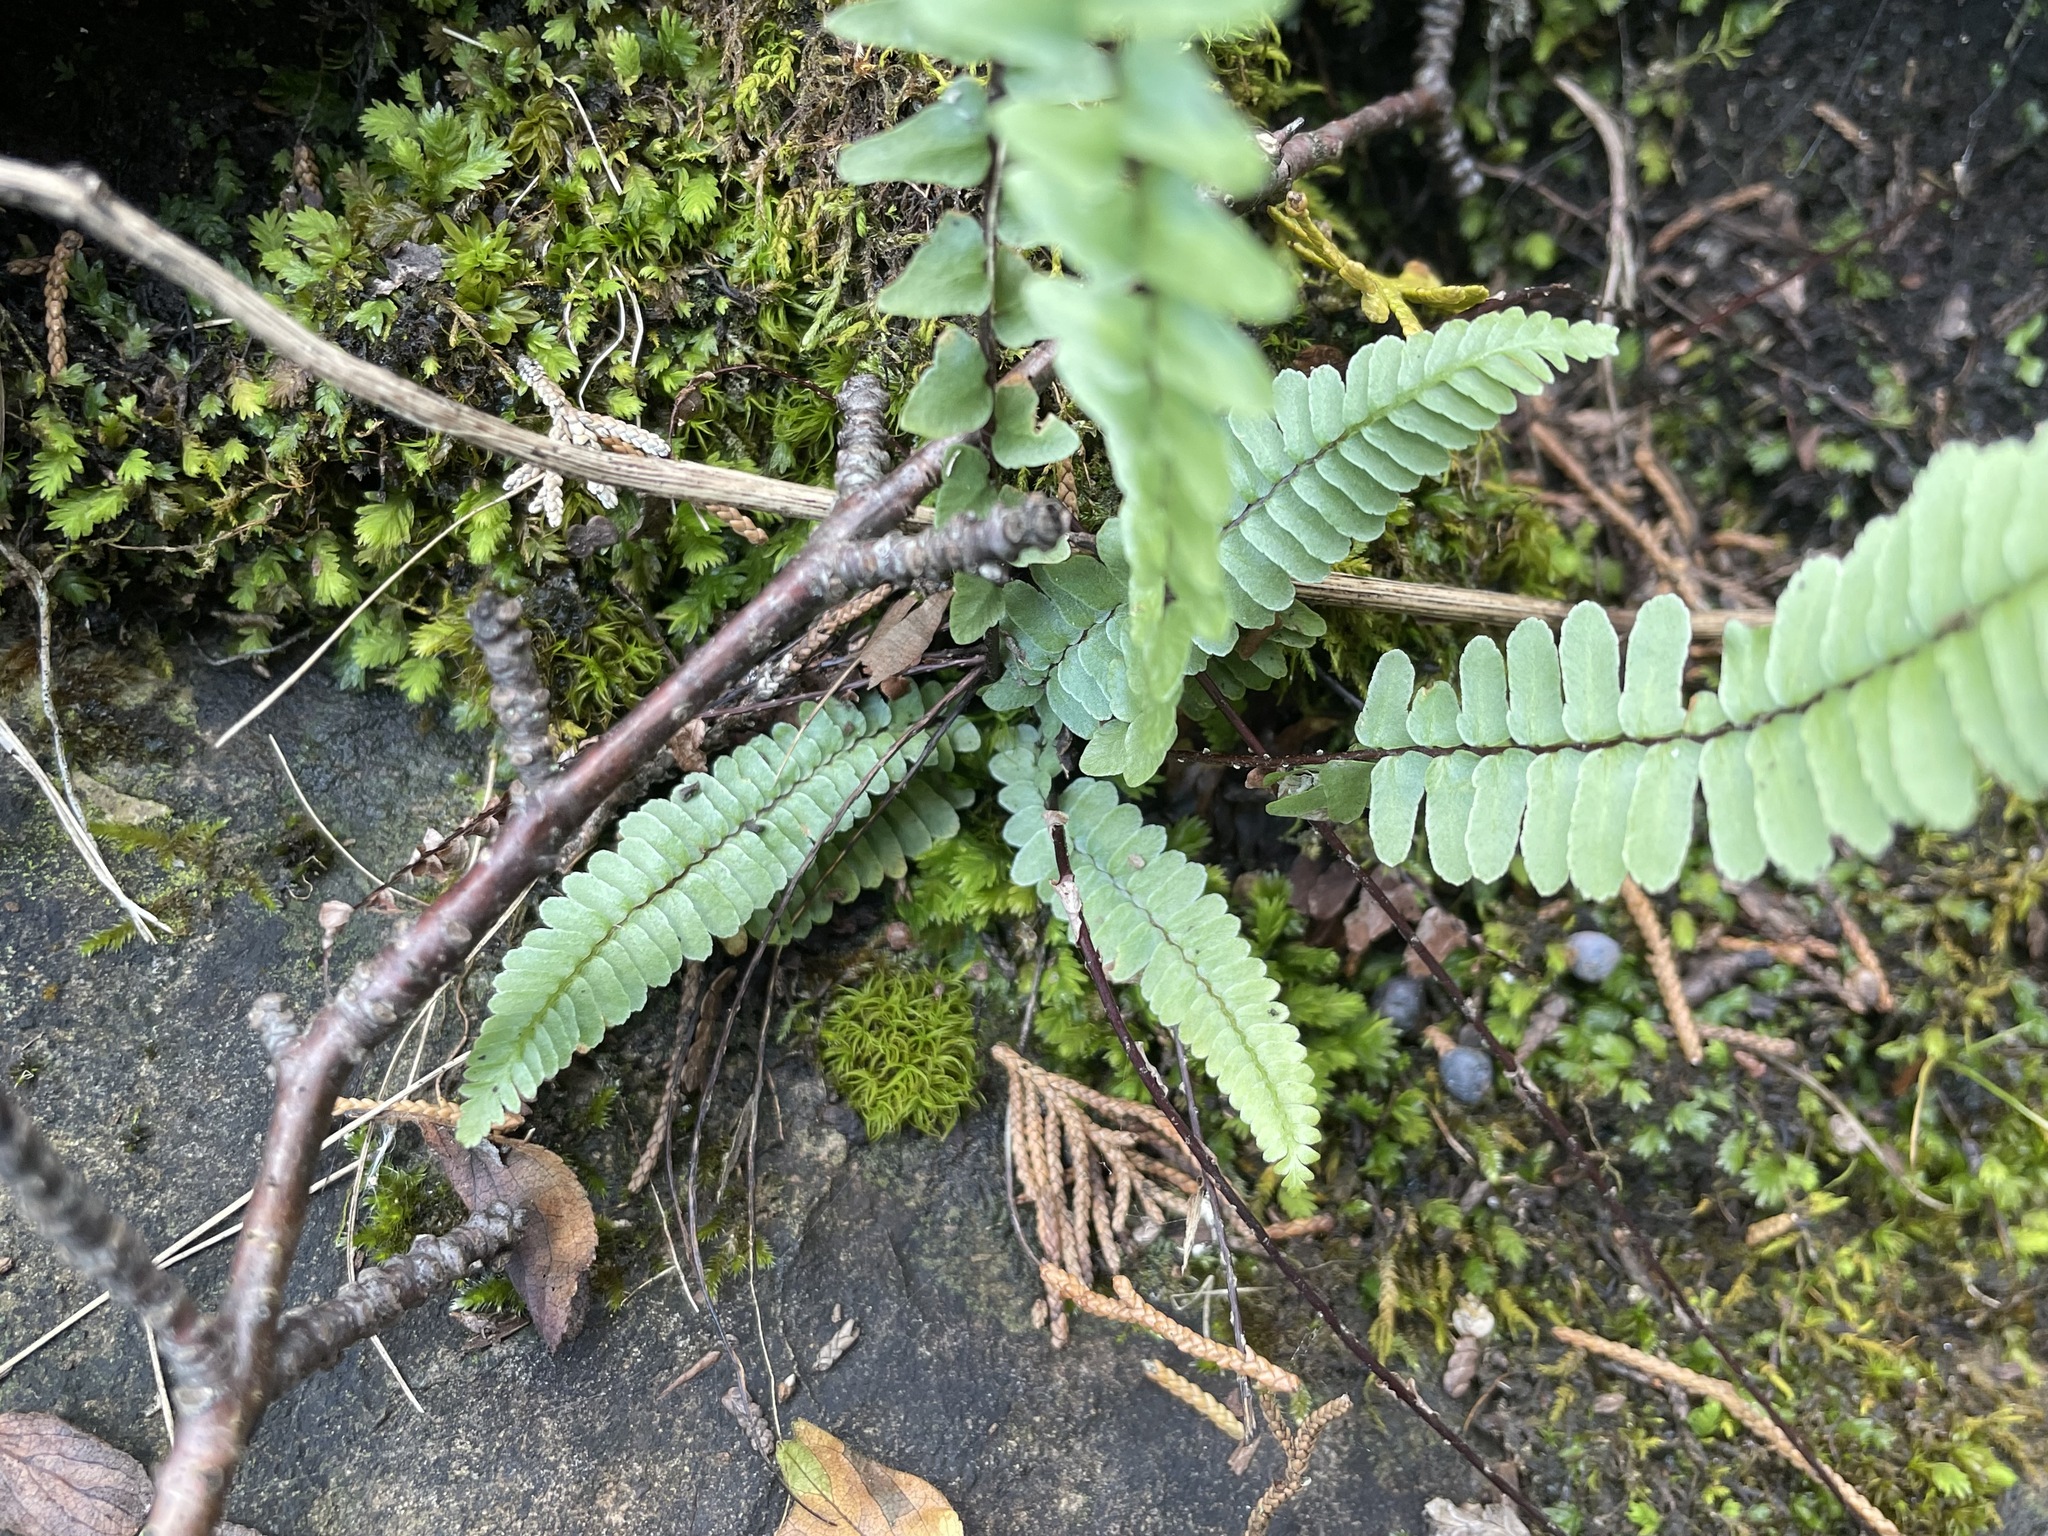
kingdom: Plantae
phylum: Tracheophyta
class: Polypodiopsida
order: Polypodiales
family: Aspleniaceae
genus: Asplenium
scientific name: Asplenium platyneuron
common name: Ebony spleenwort
